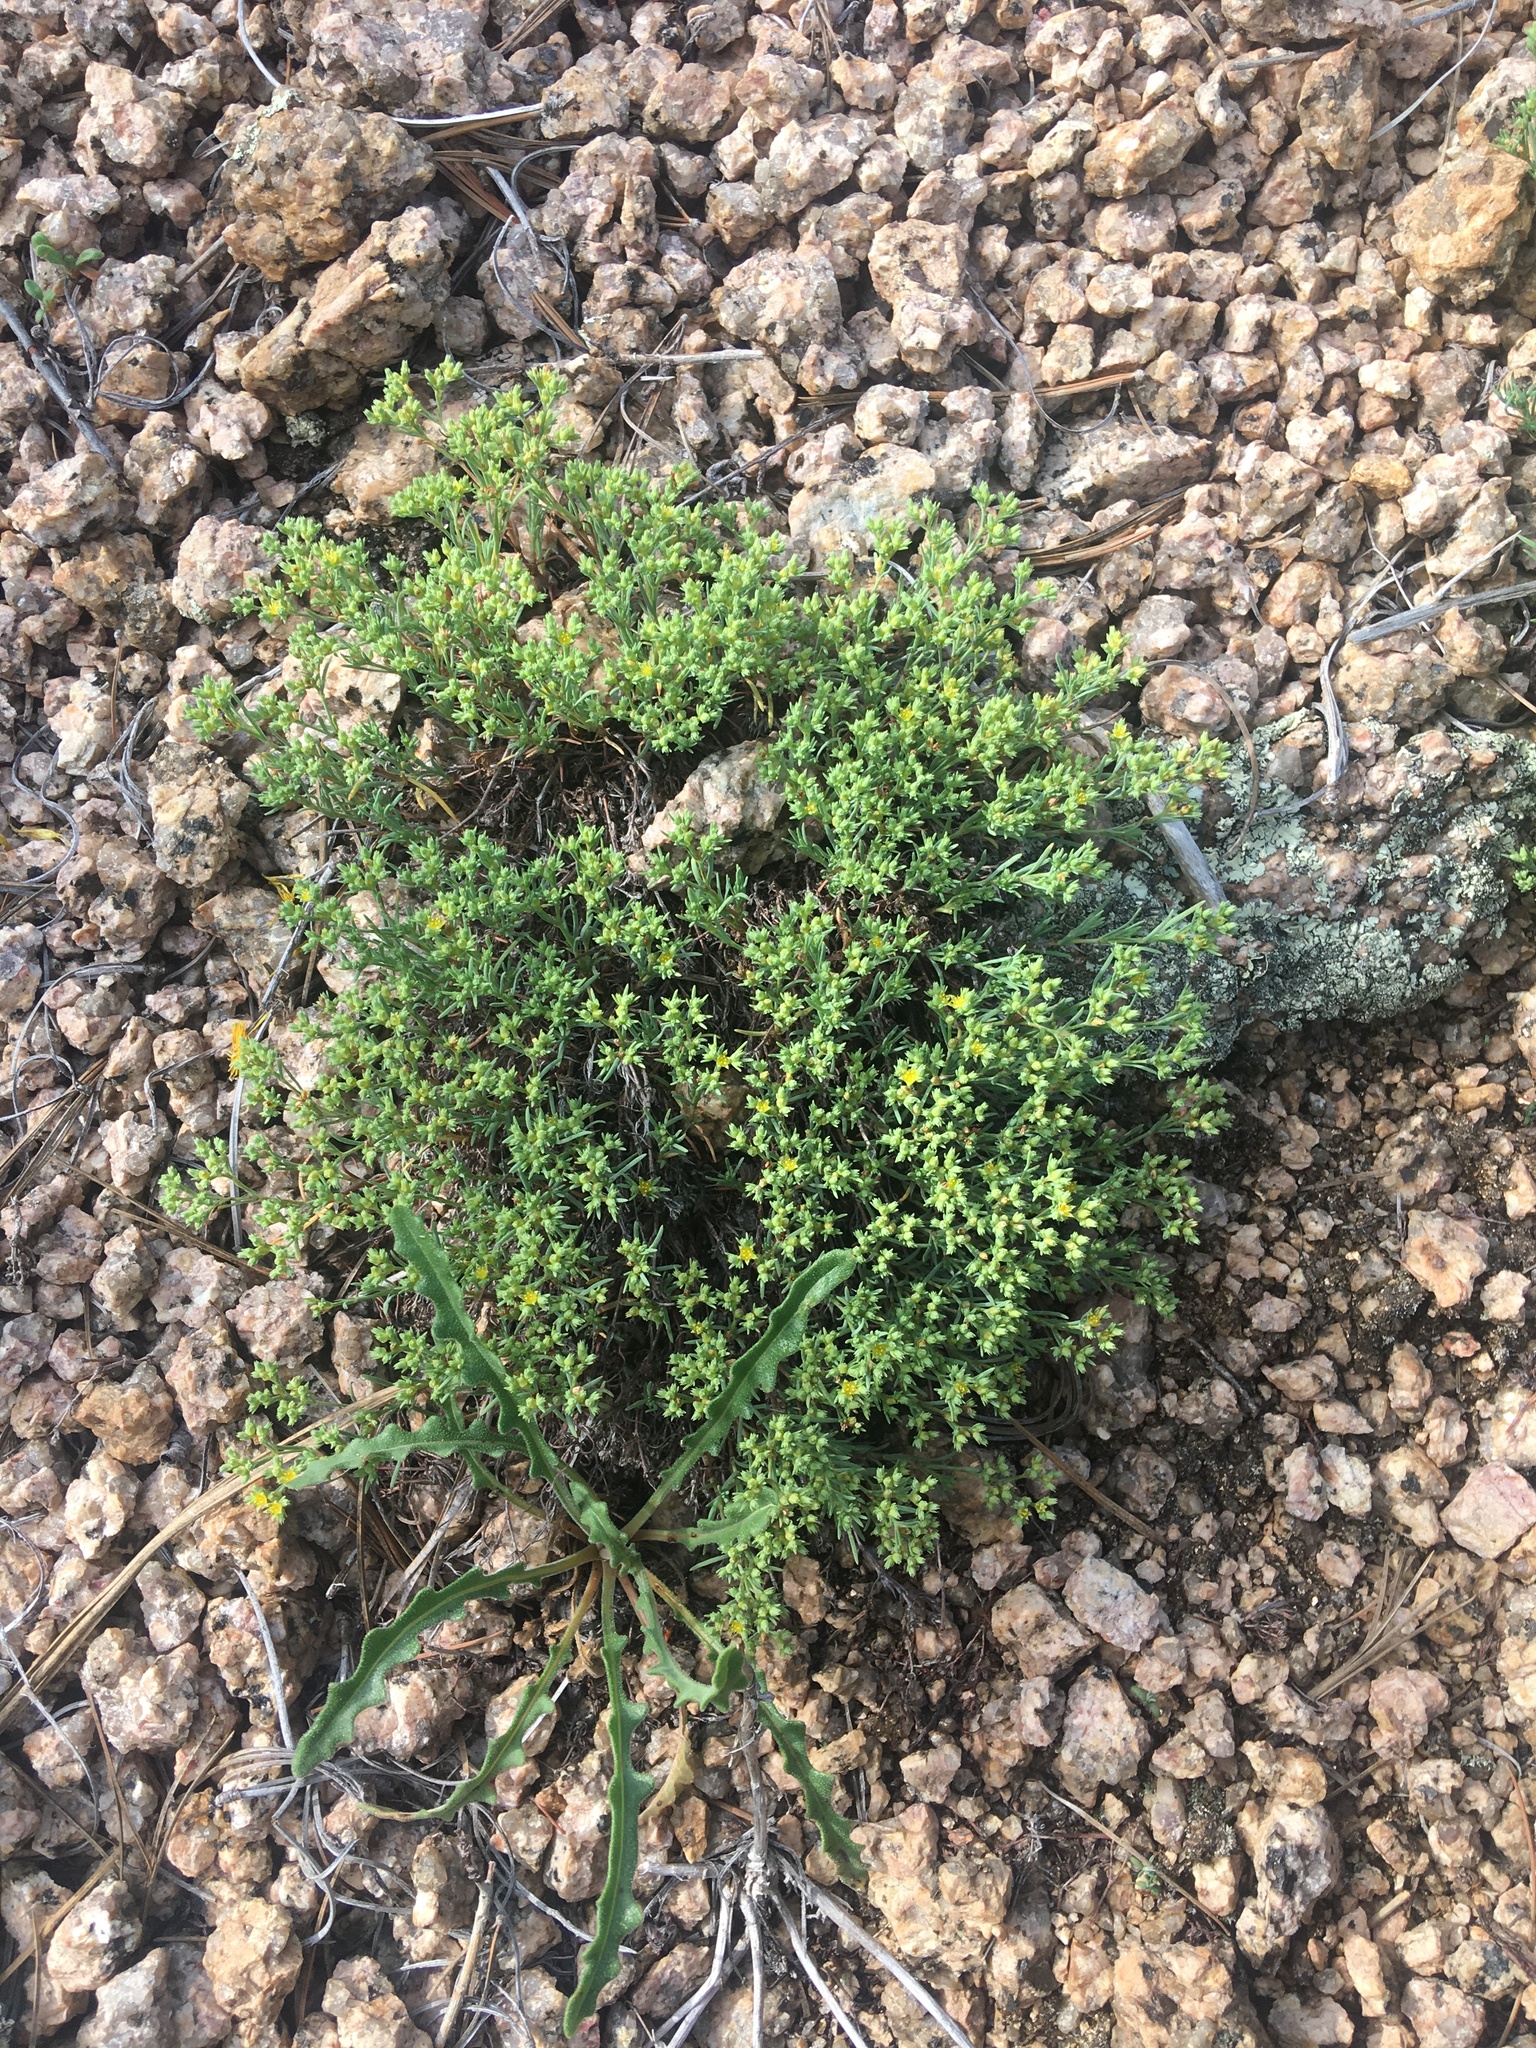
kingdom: Plantae
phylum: Tracheophyta
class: Magnoliopsida
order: Caryophyllales
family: Caryophyllaceae
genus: Paronychia
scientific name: Paronychia jamesii
